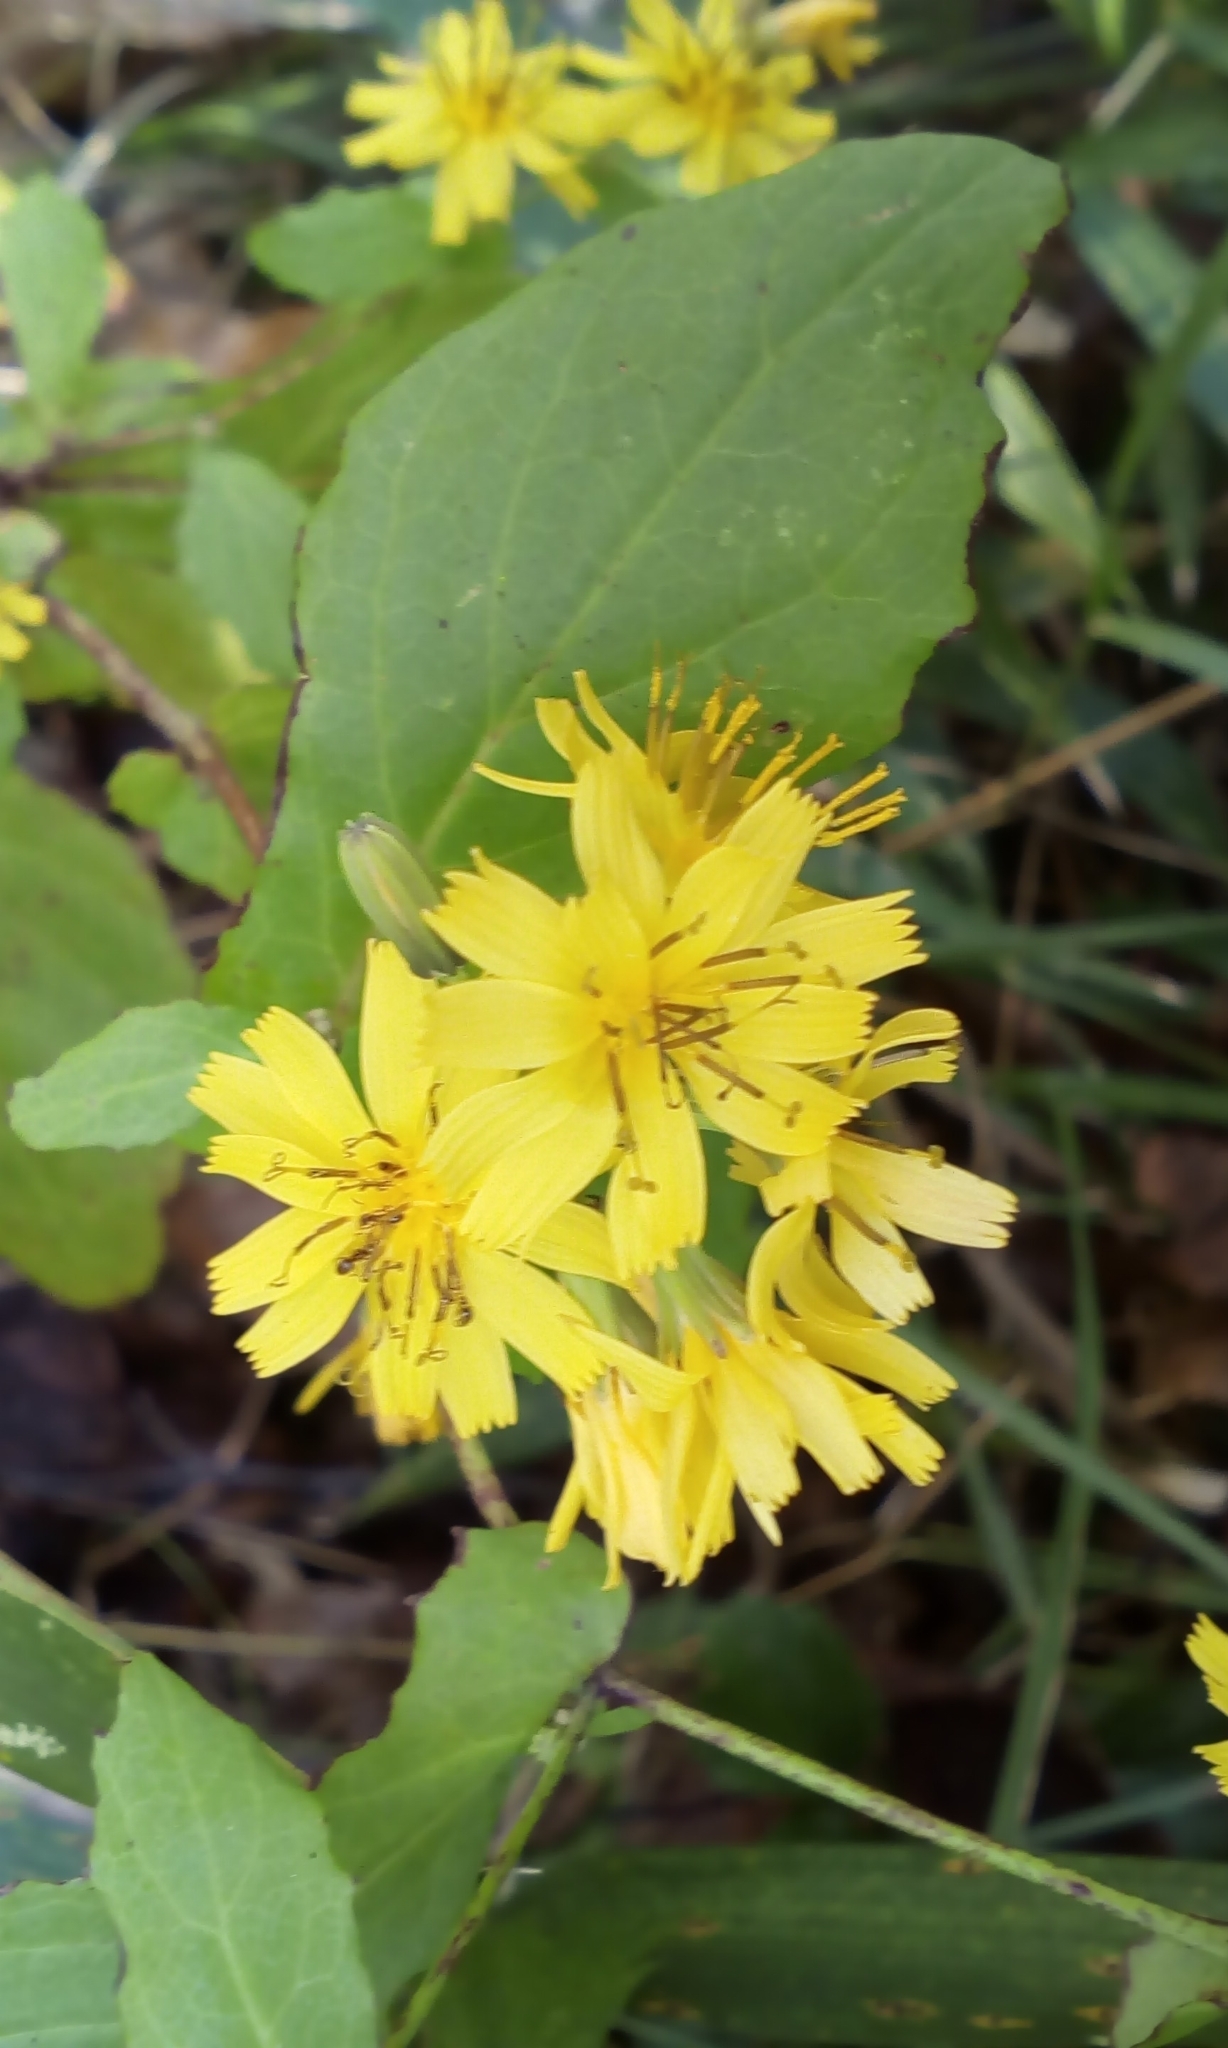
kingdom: Plantae
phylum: Tracheophyta
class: Magnoliopsida
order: Asterales
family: Asteraceae
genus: Crepidiastrum
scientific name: Crepidiastrum denticulatum
